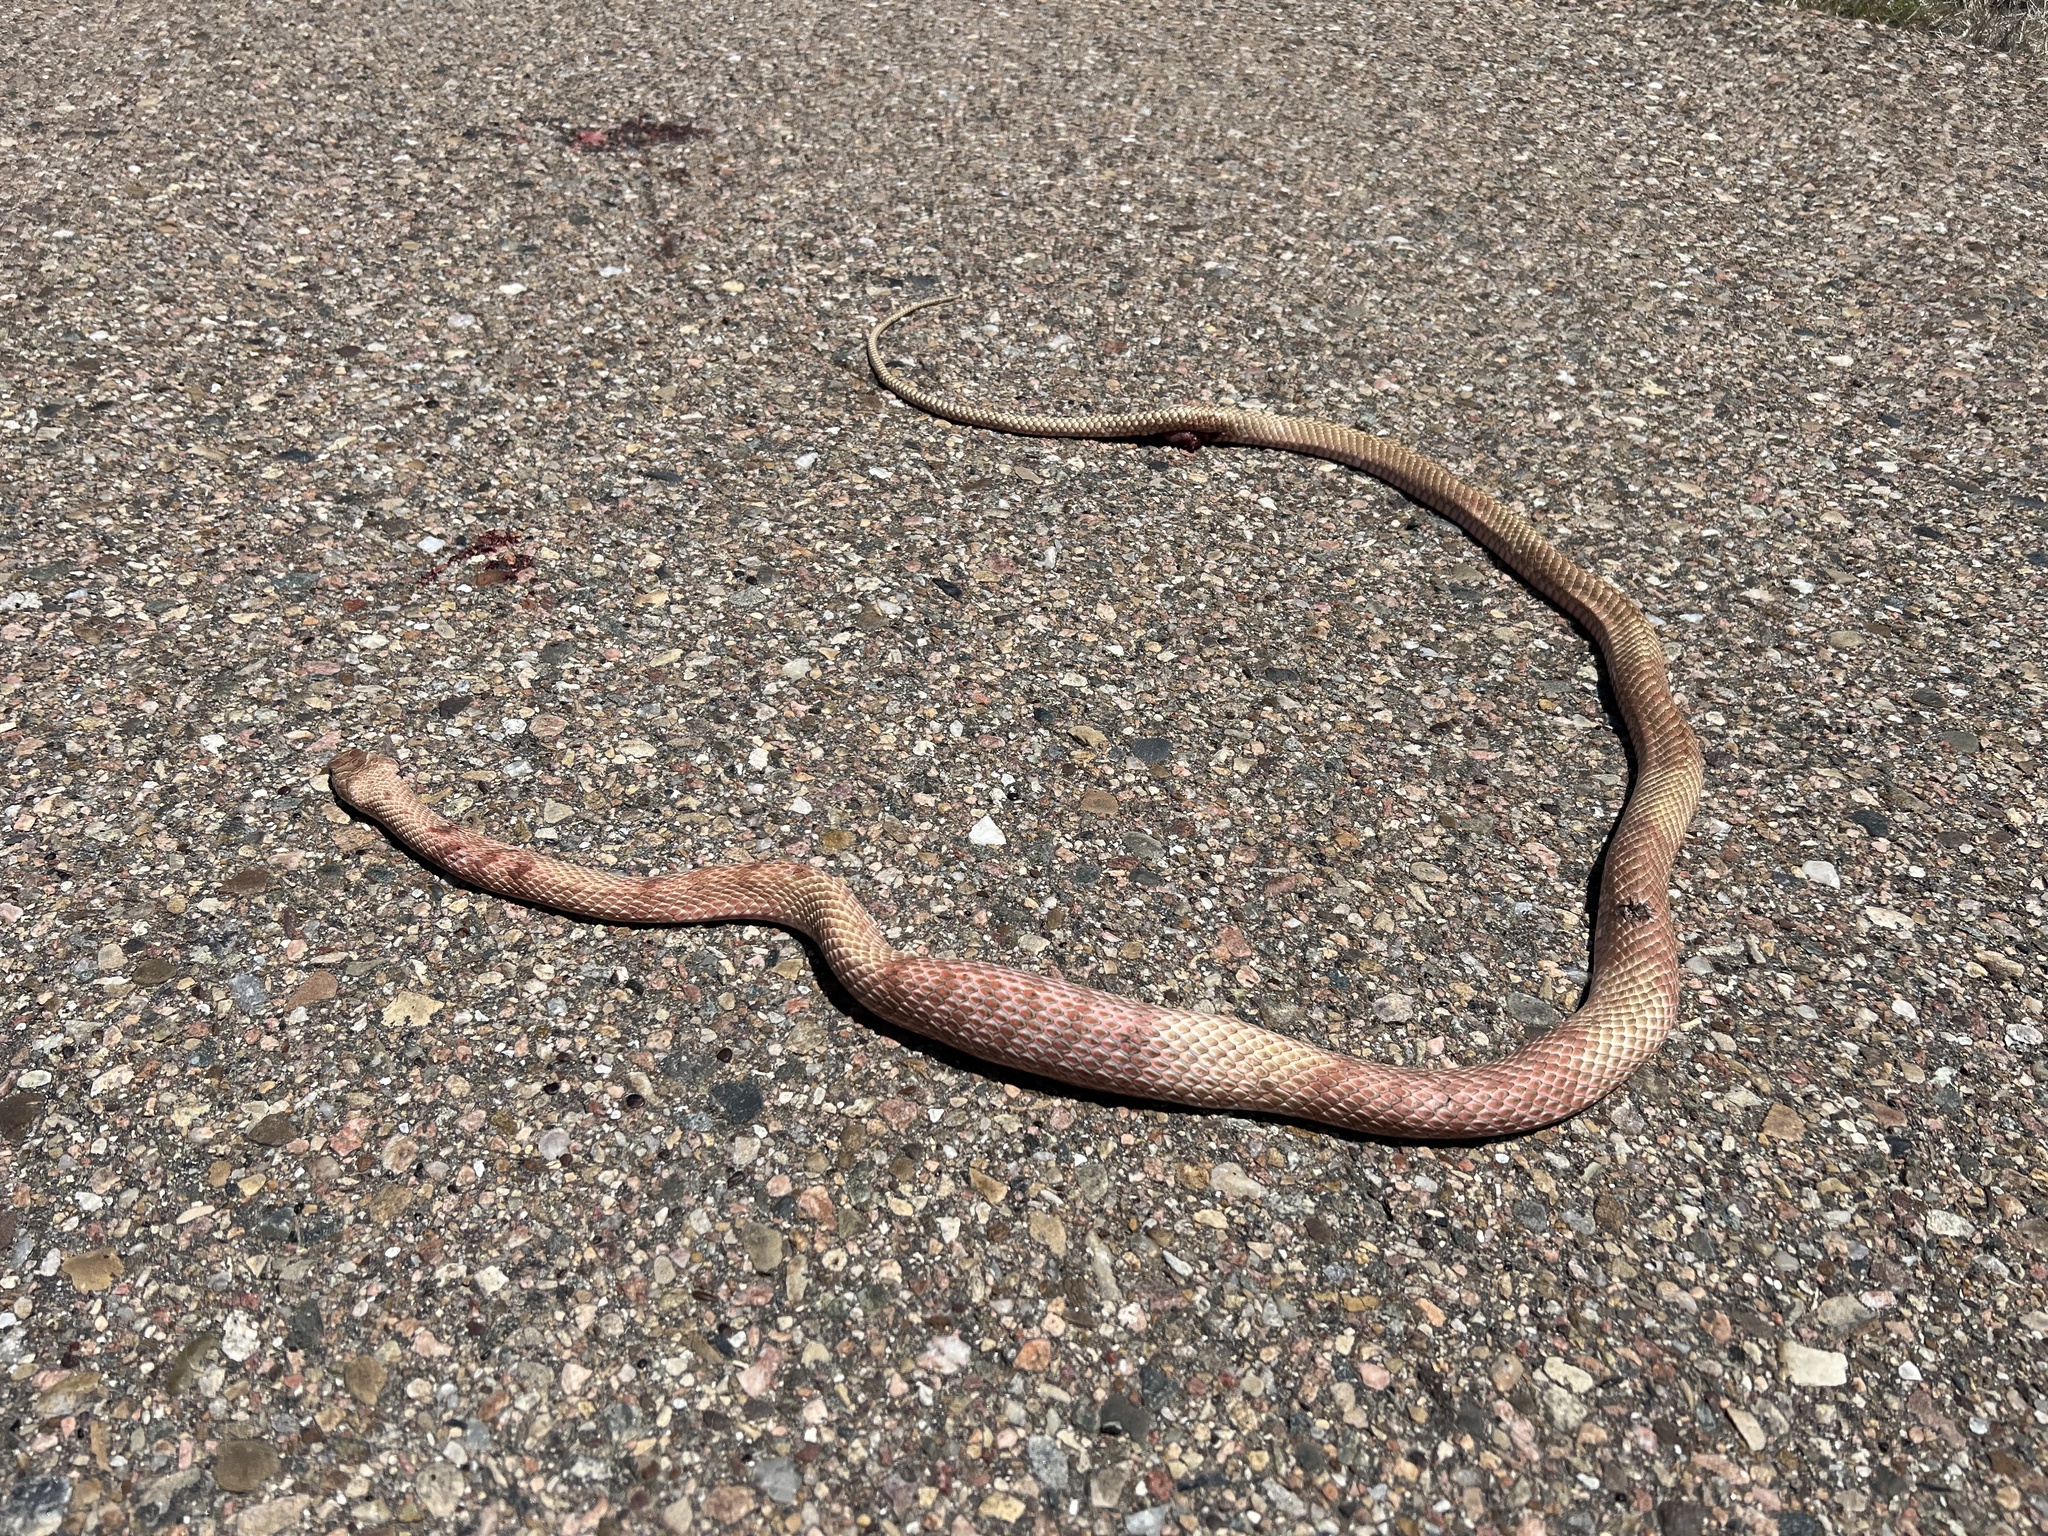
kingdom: Animalia
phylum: Chordata
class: Squamata
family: Colubridae
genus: Masticophis
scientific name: Masticophis flagellum
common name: Coachwhip
